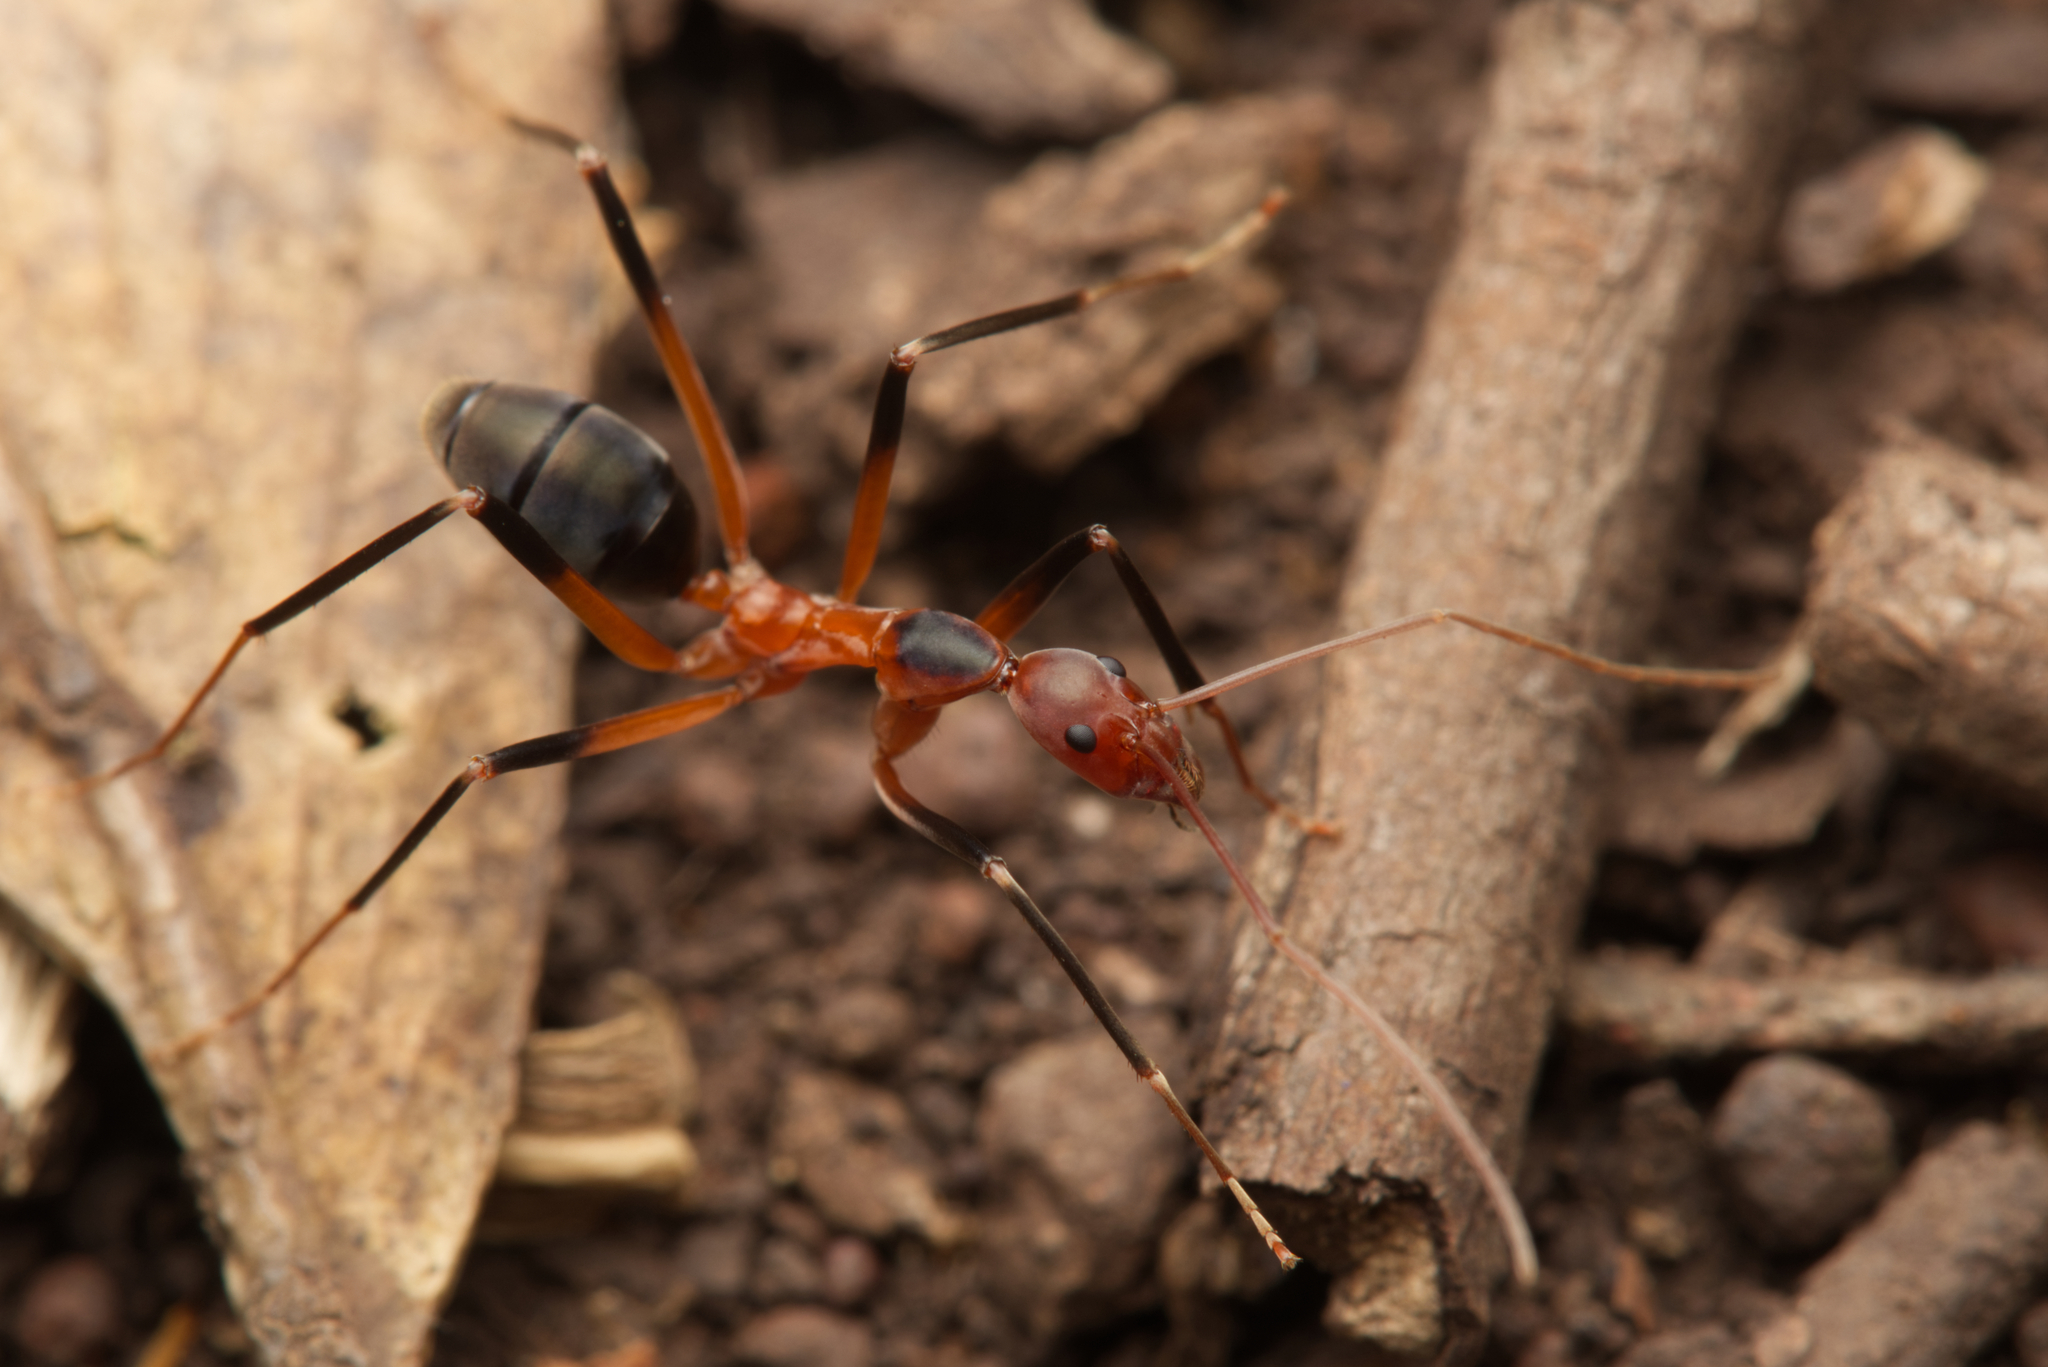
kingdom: Animalia
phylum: Arthropoda
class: Insecta
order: Hymenoptera
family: Formicidae
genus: Leptomyrmex
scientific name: Leptomyrmex cnemidatus
